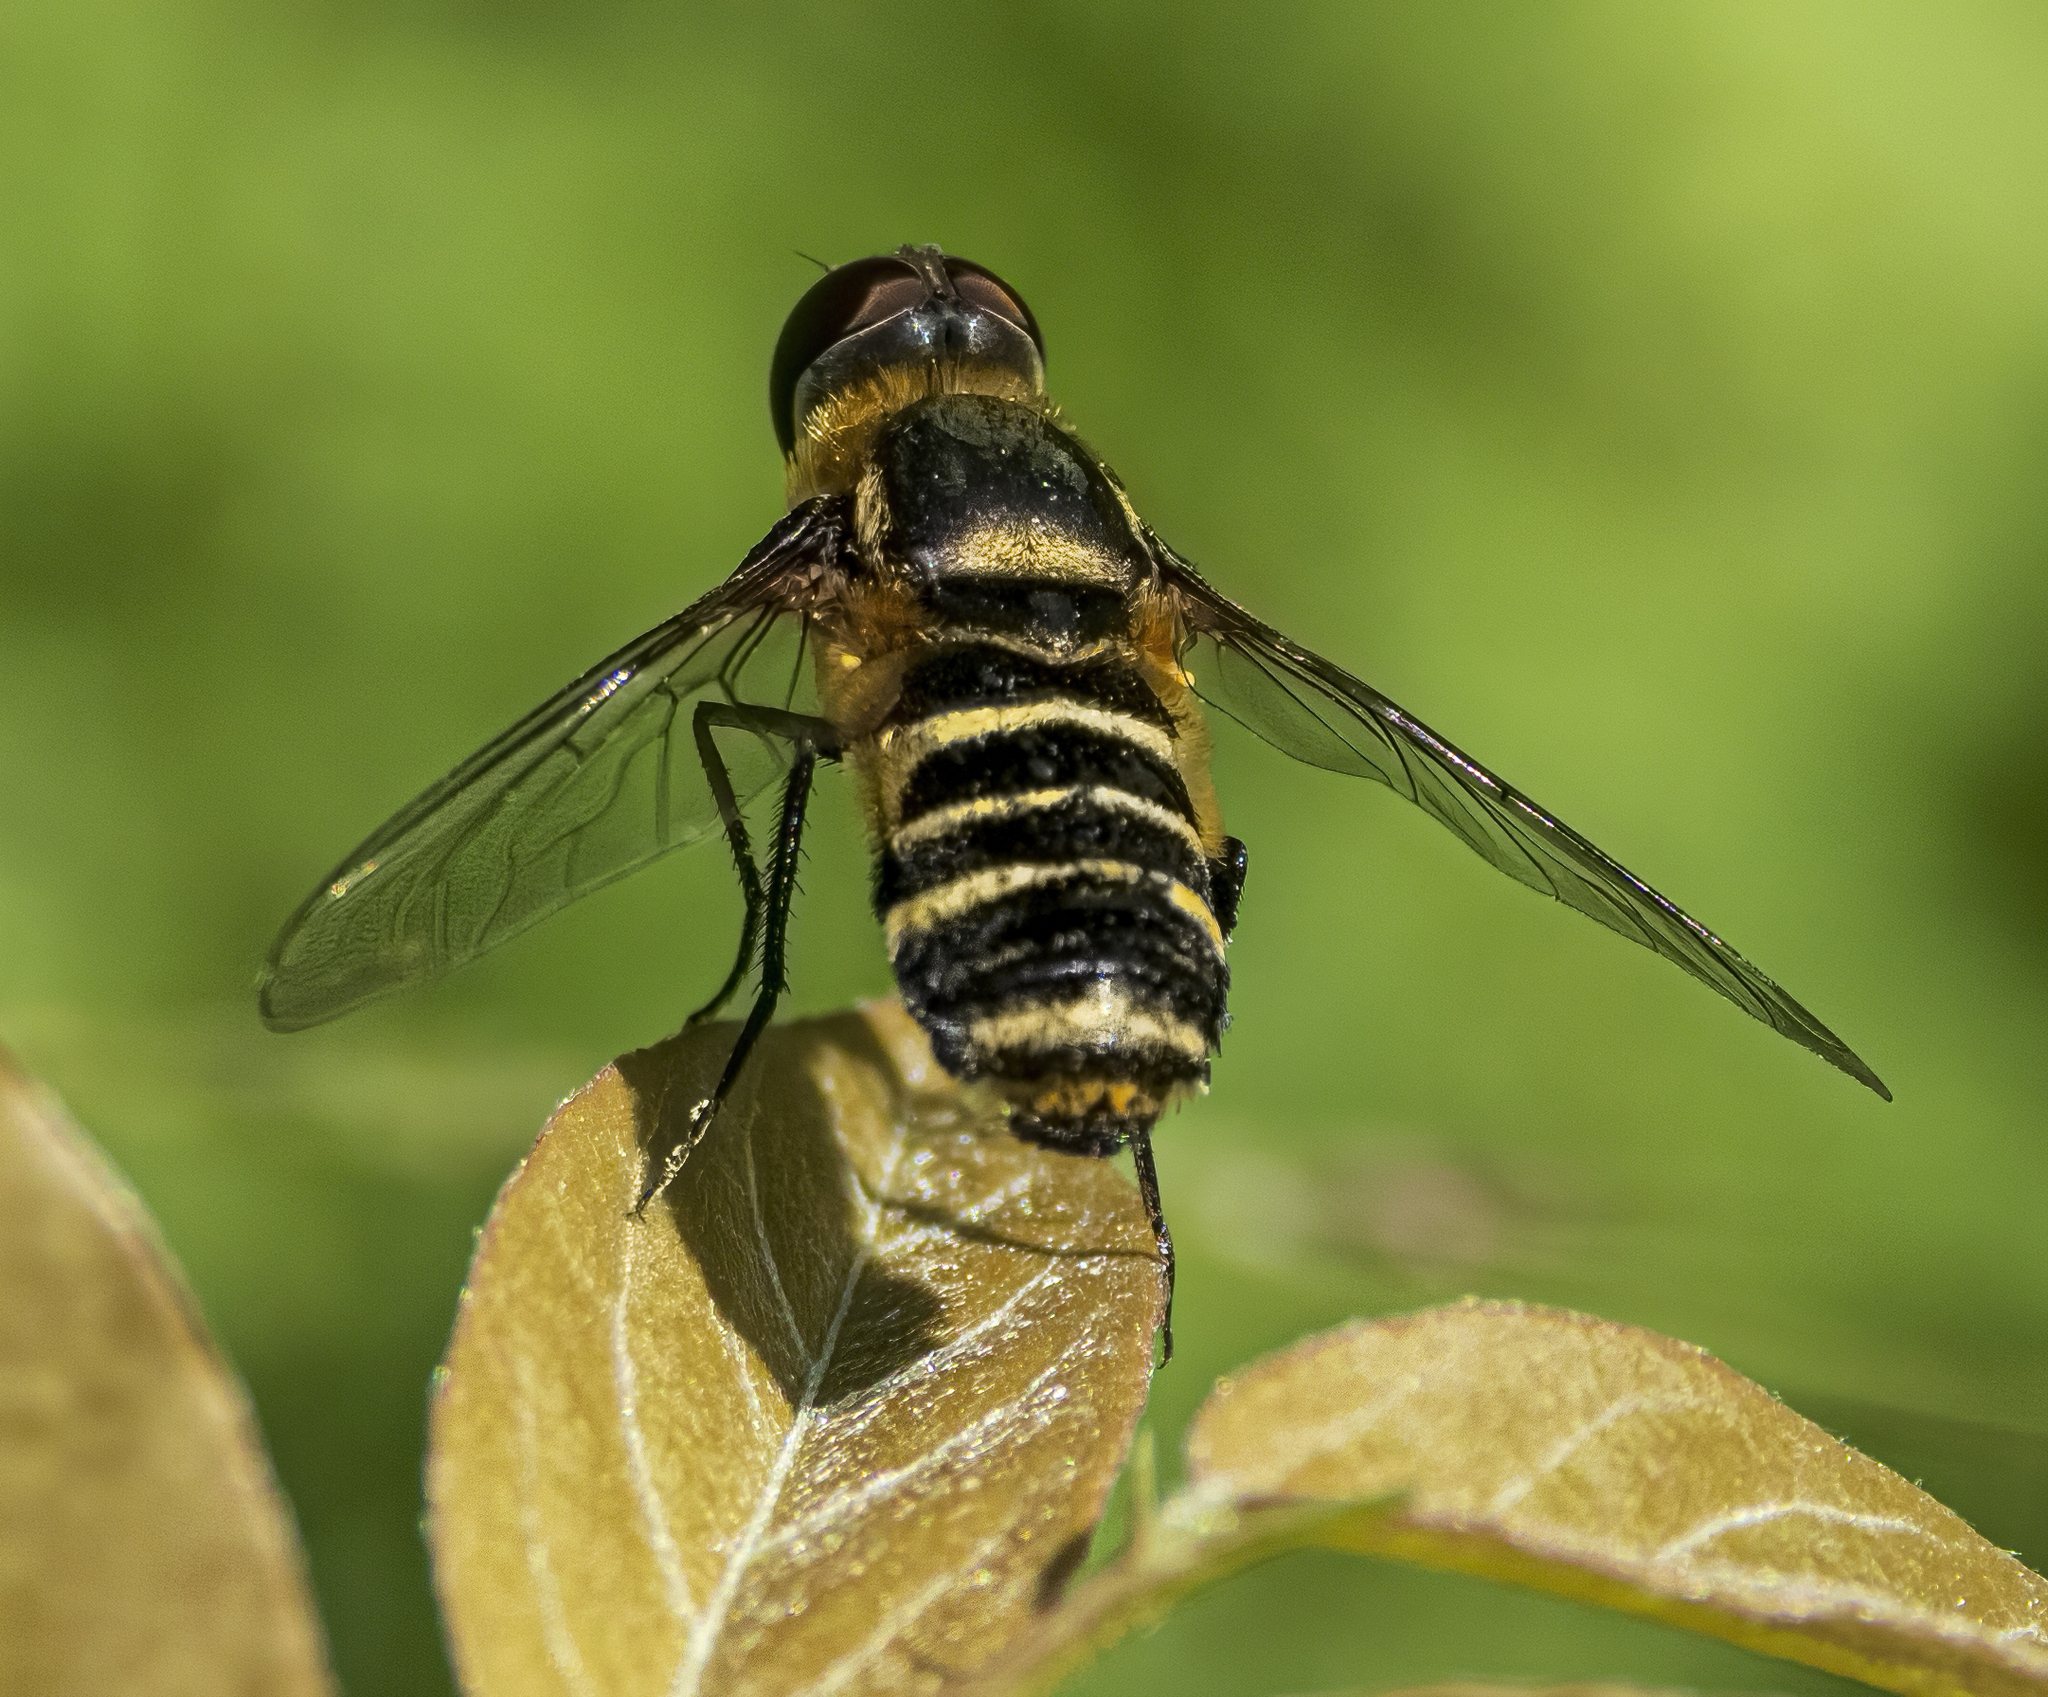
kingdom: Animalia
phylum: Arthropoda
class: Insecta
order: Diptera
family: Bombyliidae
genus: Villa
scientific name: Villa
